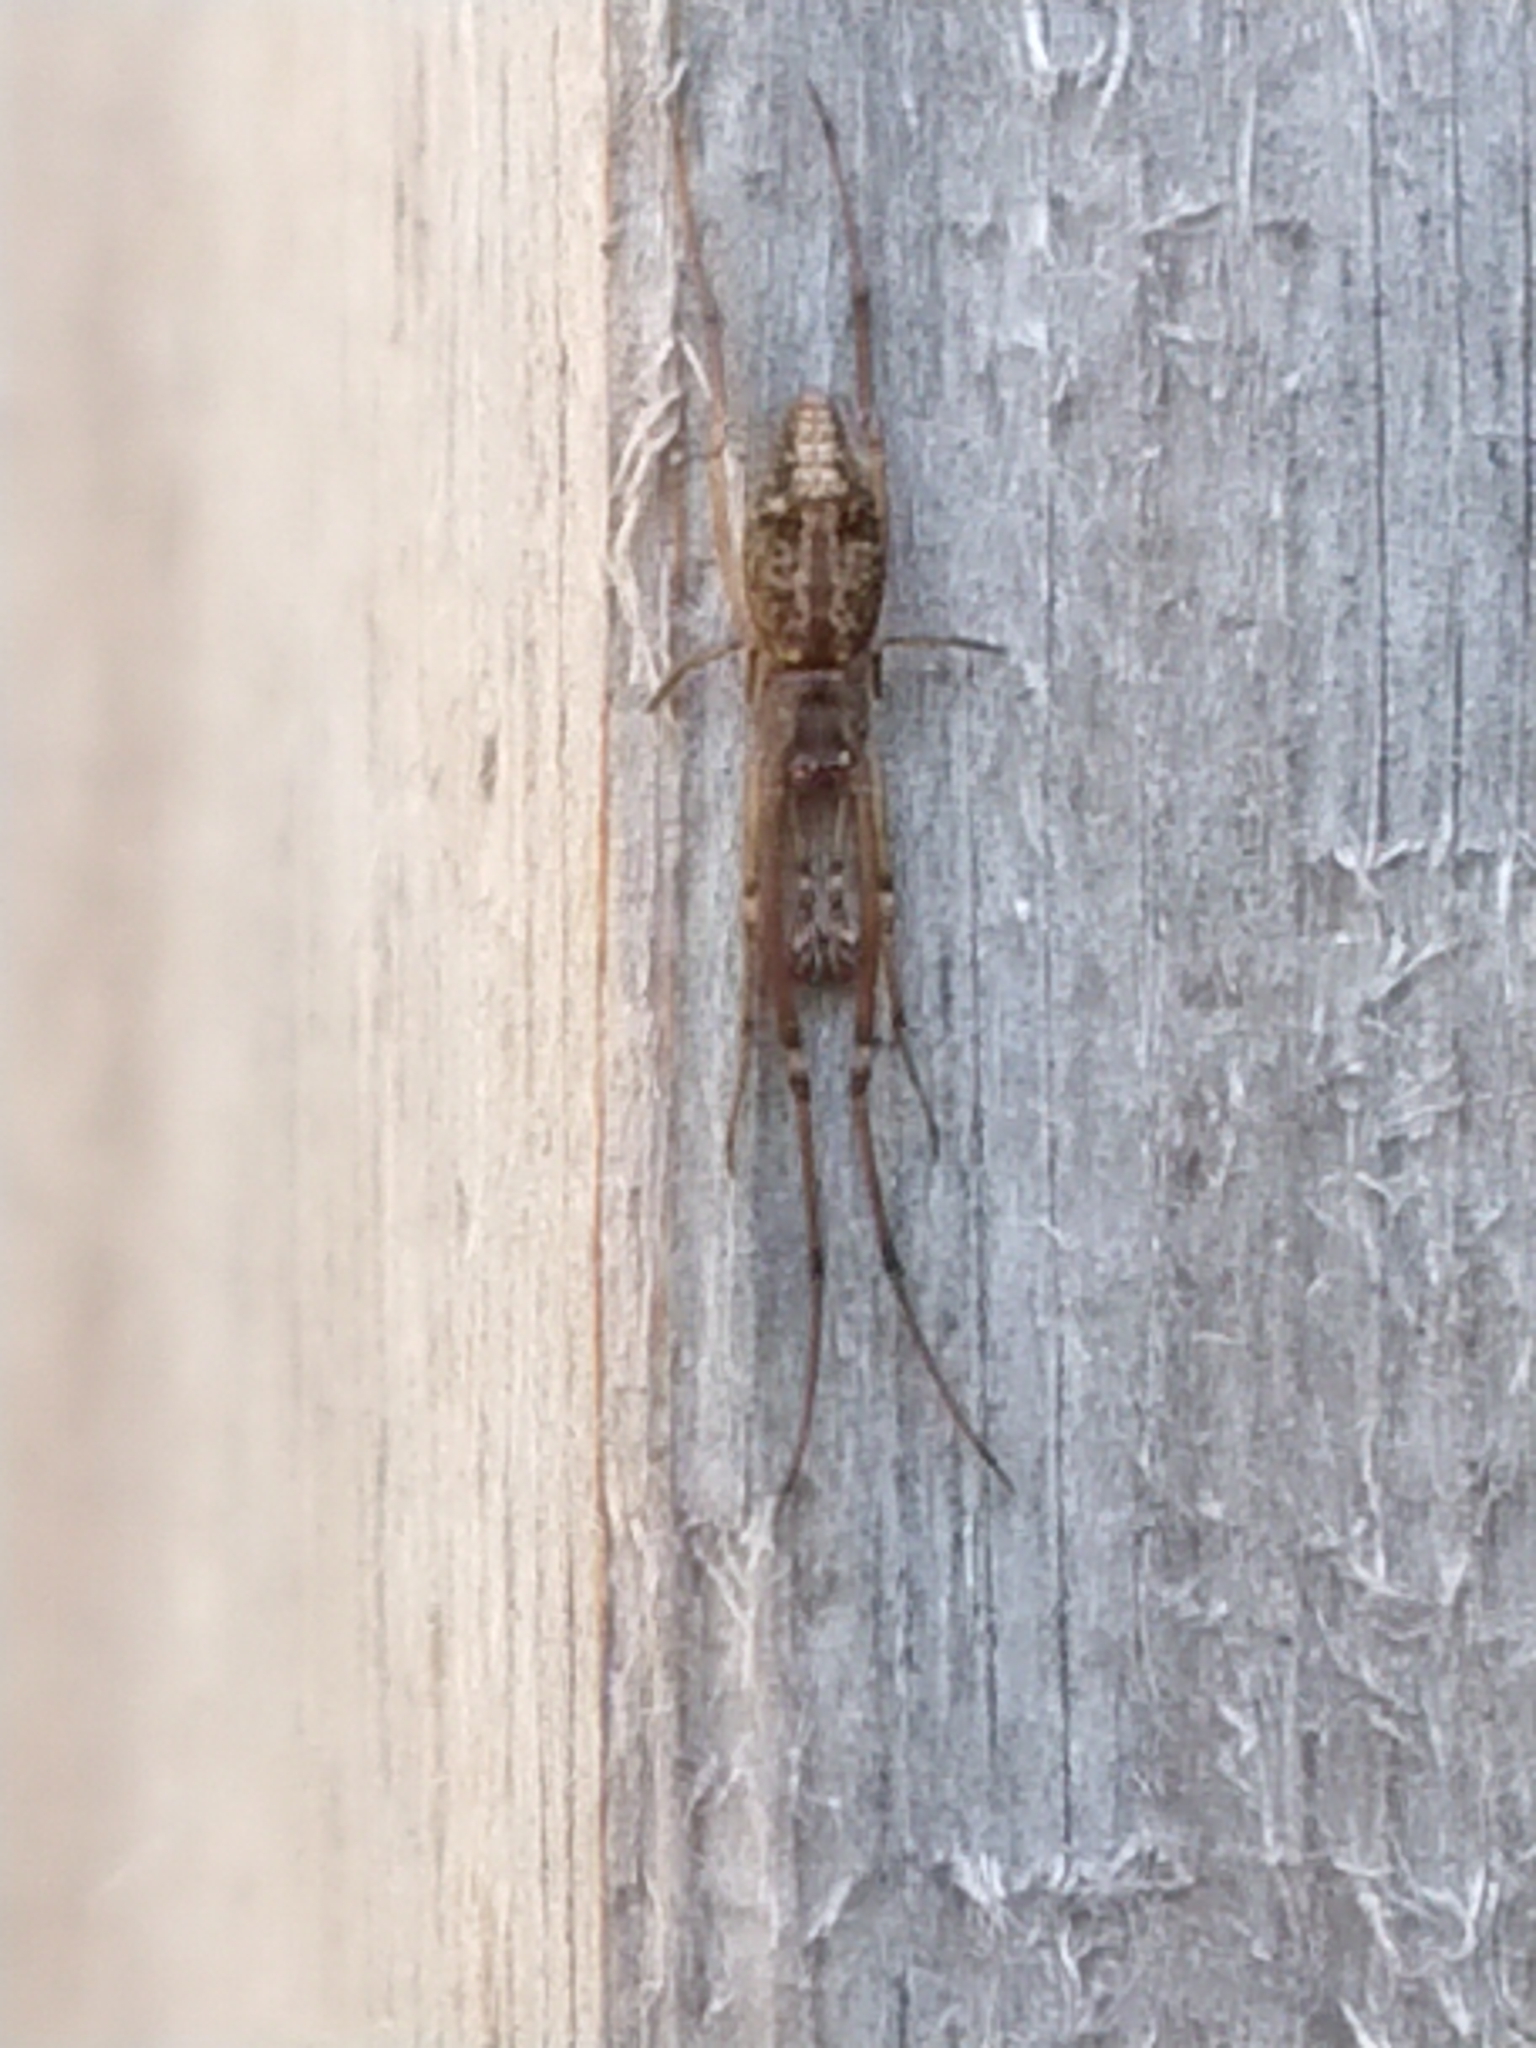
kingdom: Animalia
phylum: Arthropoda
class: Arachnida
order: Araneae
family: Theridiidae
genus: Moneta
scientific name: Moneta conifera
